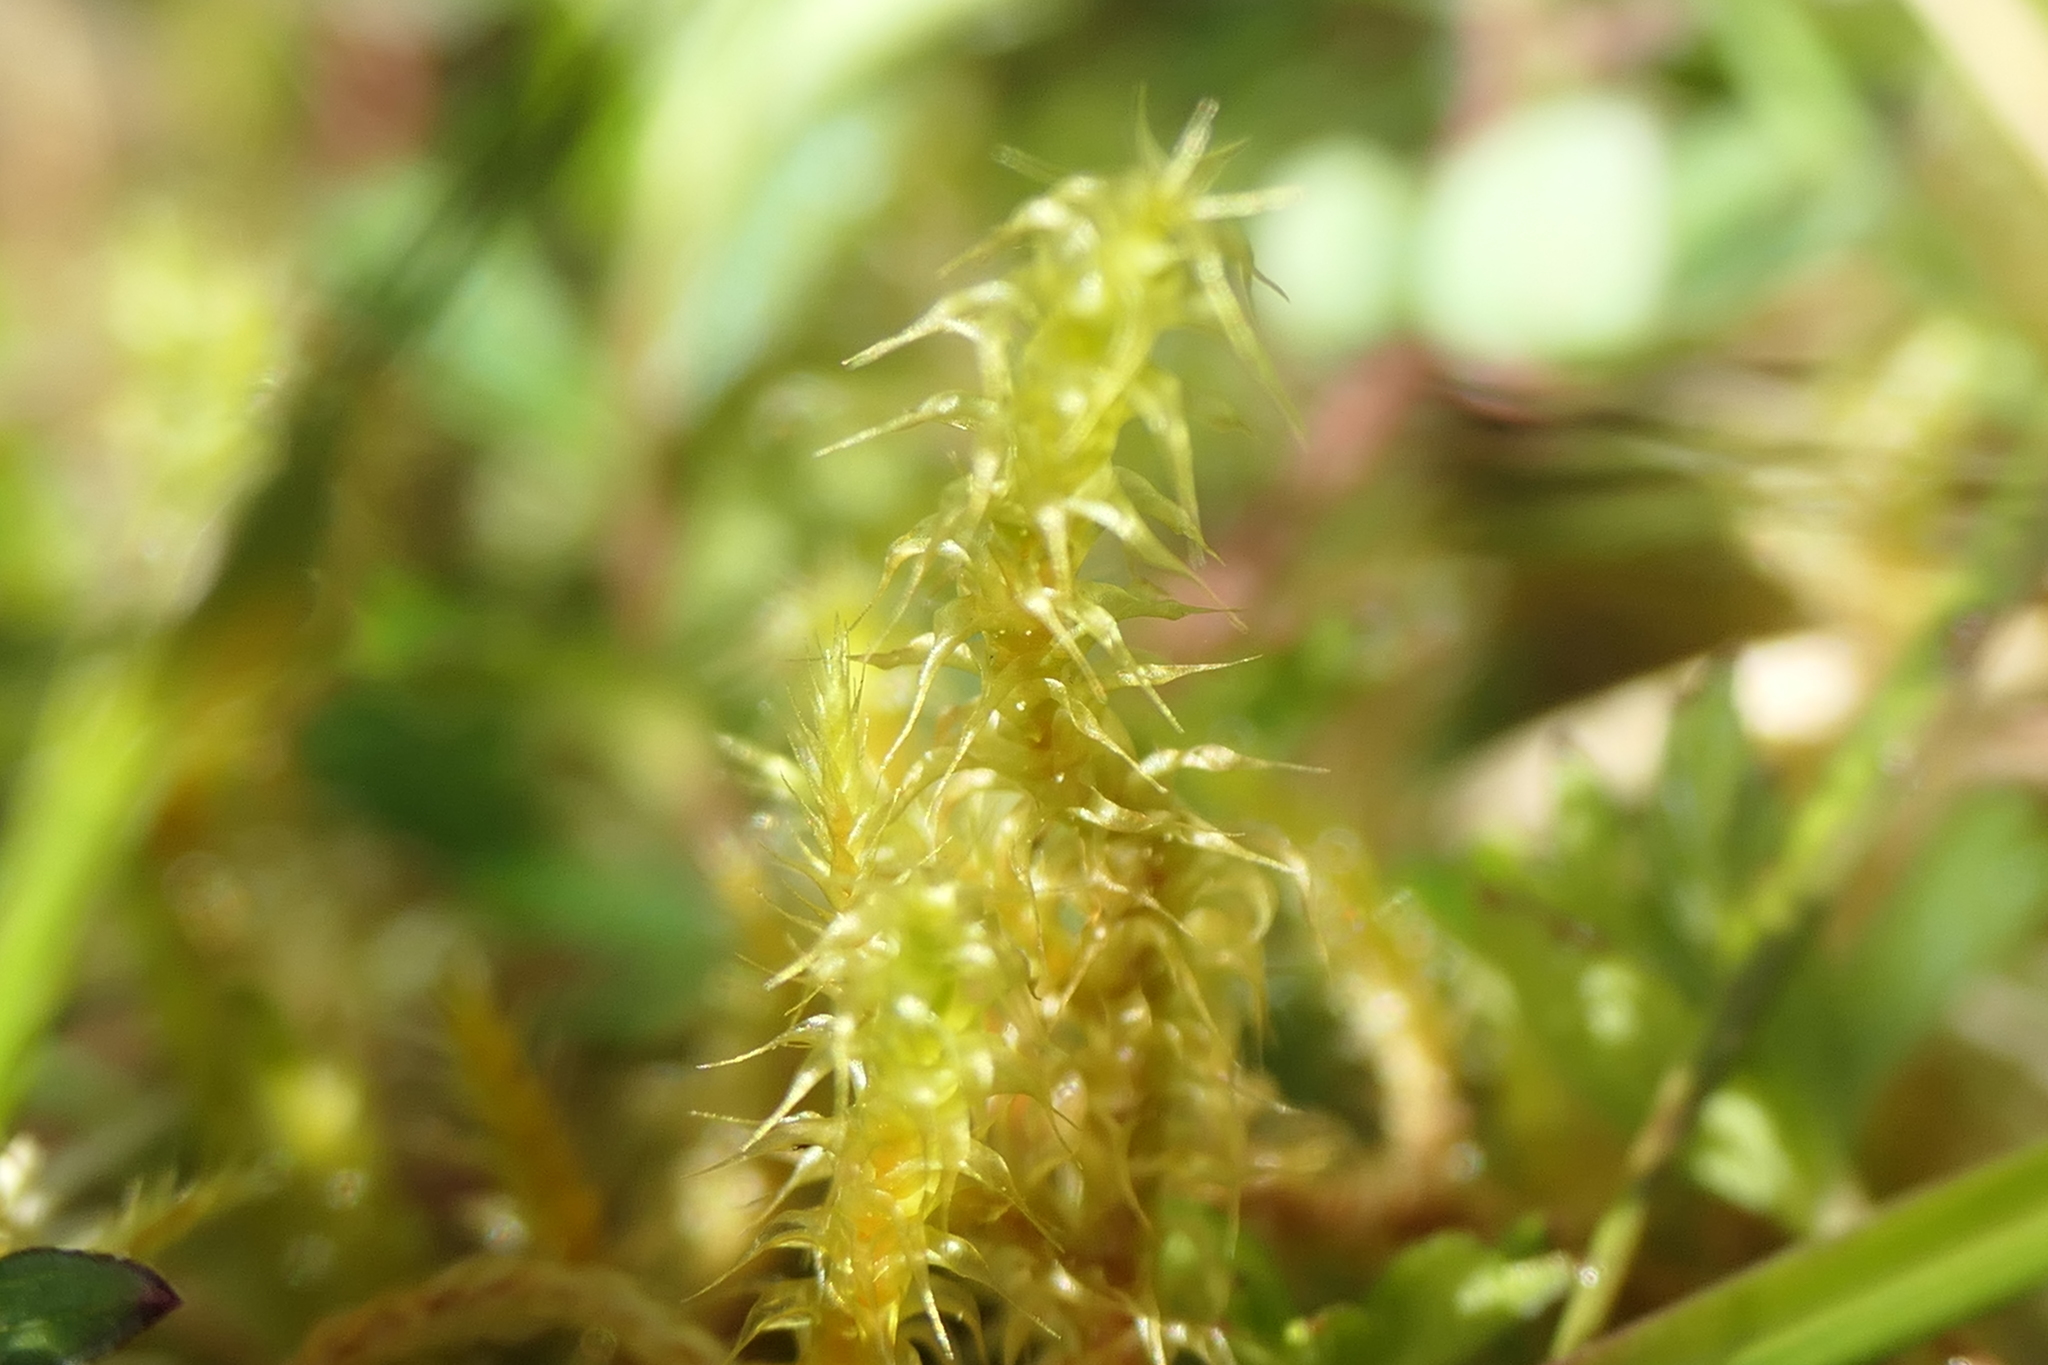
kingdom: Plantae
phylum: Bryophyta
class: Bryopsida
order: Hypnales
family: Hylocomiaceae
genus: Rhytidiadelphus
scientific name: Rhytidiadelphus squarrosus
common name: Springy turf-moss
